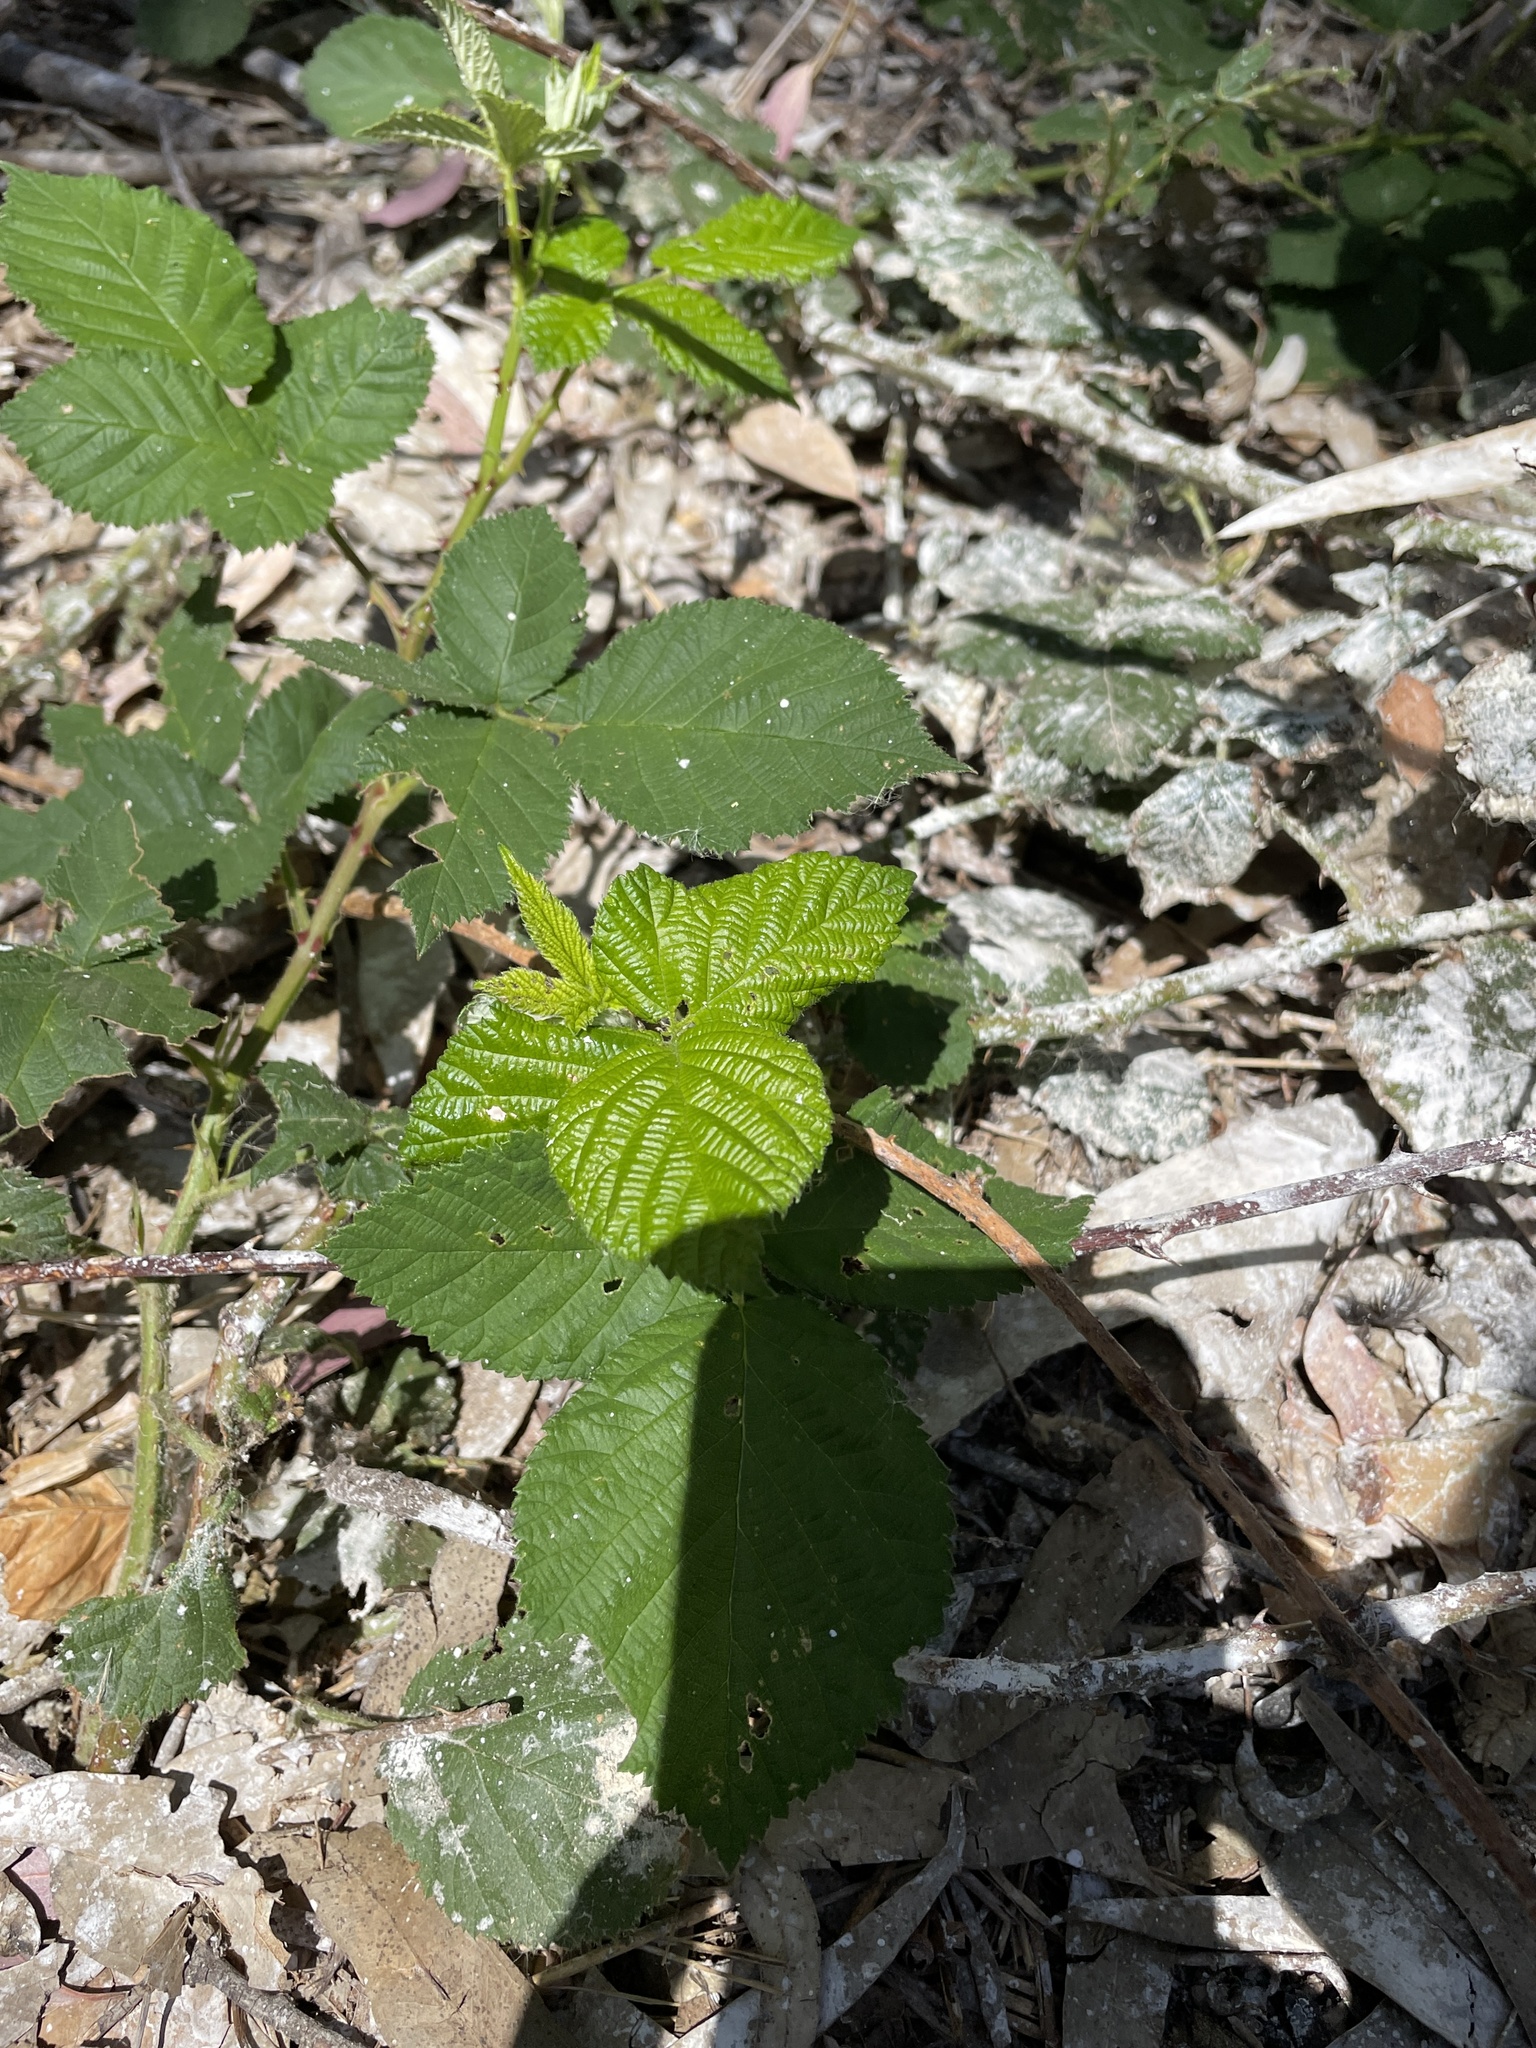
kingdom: Plantae
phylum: Tracheophyta
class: Magnoliopsida
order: Rosales
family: Rosaceae
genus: Rubus
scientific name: Rubus armeniacus
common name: Himalayan blackberry
